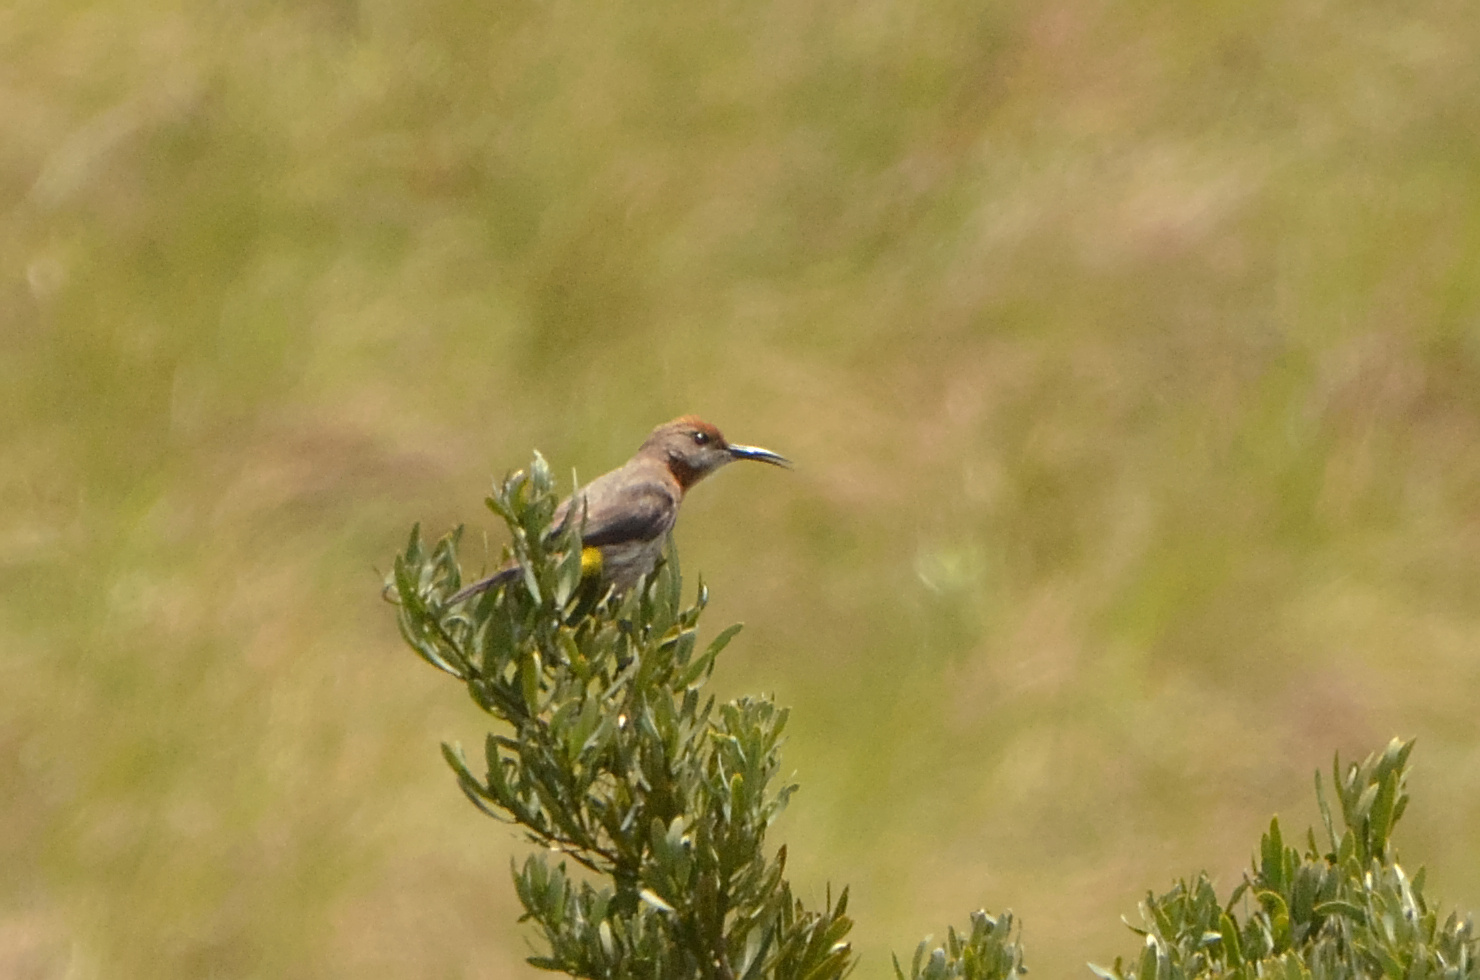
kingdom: Animalia
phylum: Chordata
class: Aves
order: Passeriformes
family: Promeropidae
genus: Promerops
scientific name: Promerops gurneyi
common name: Gurney's sugarbird
